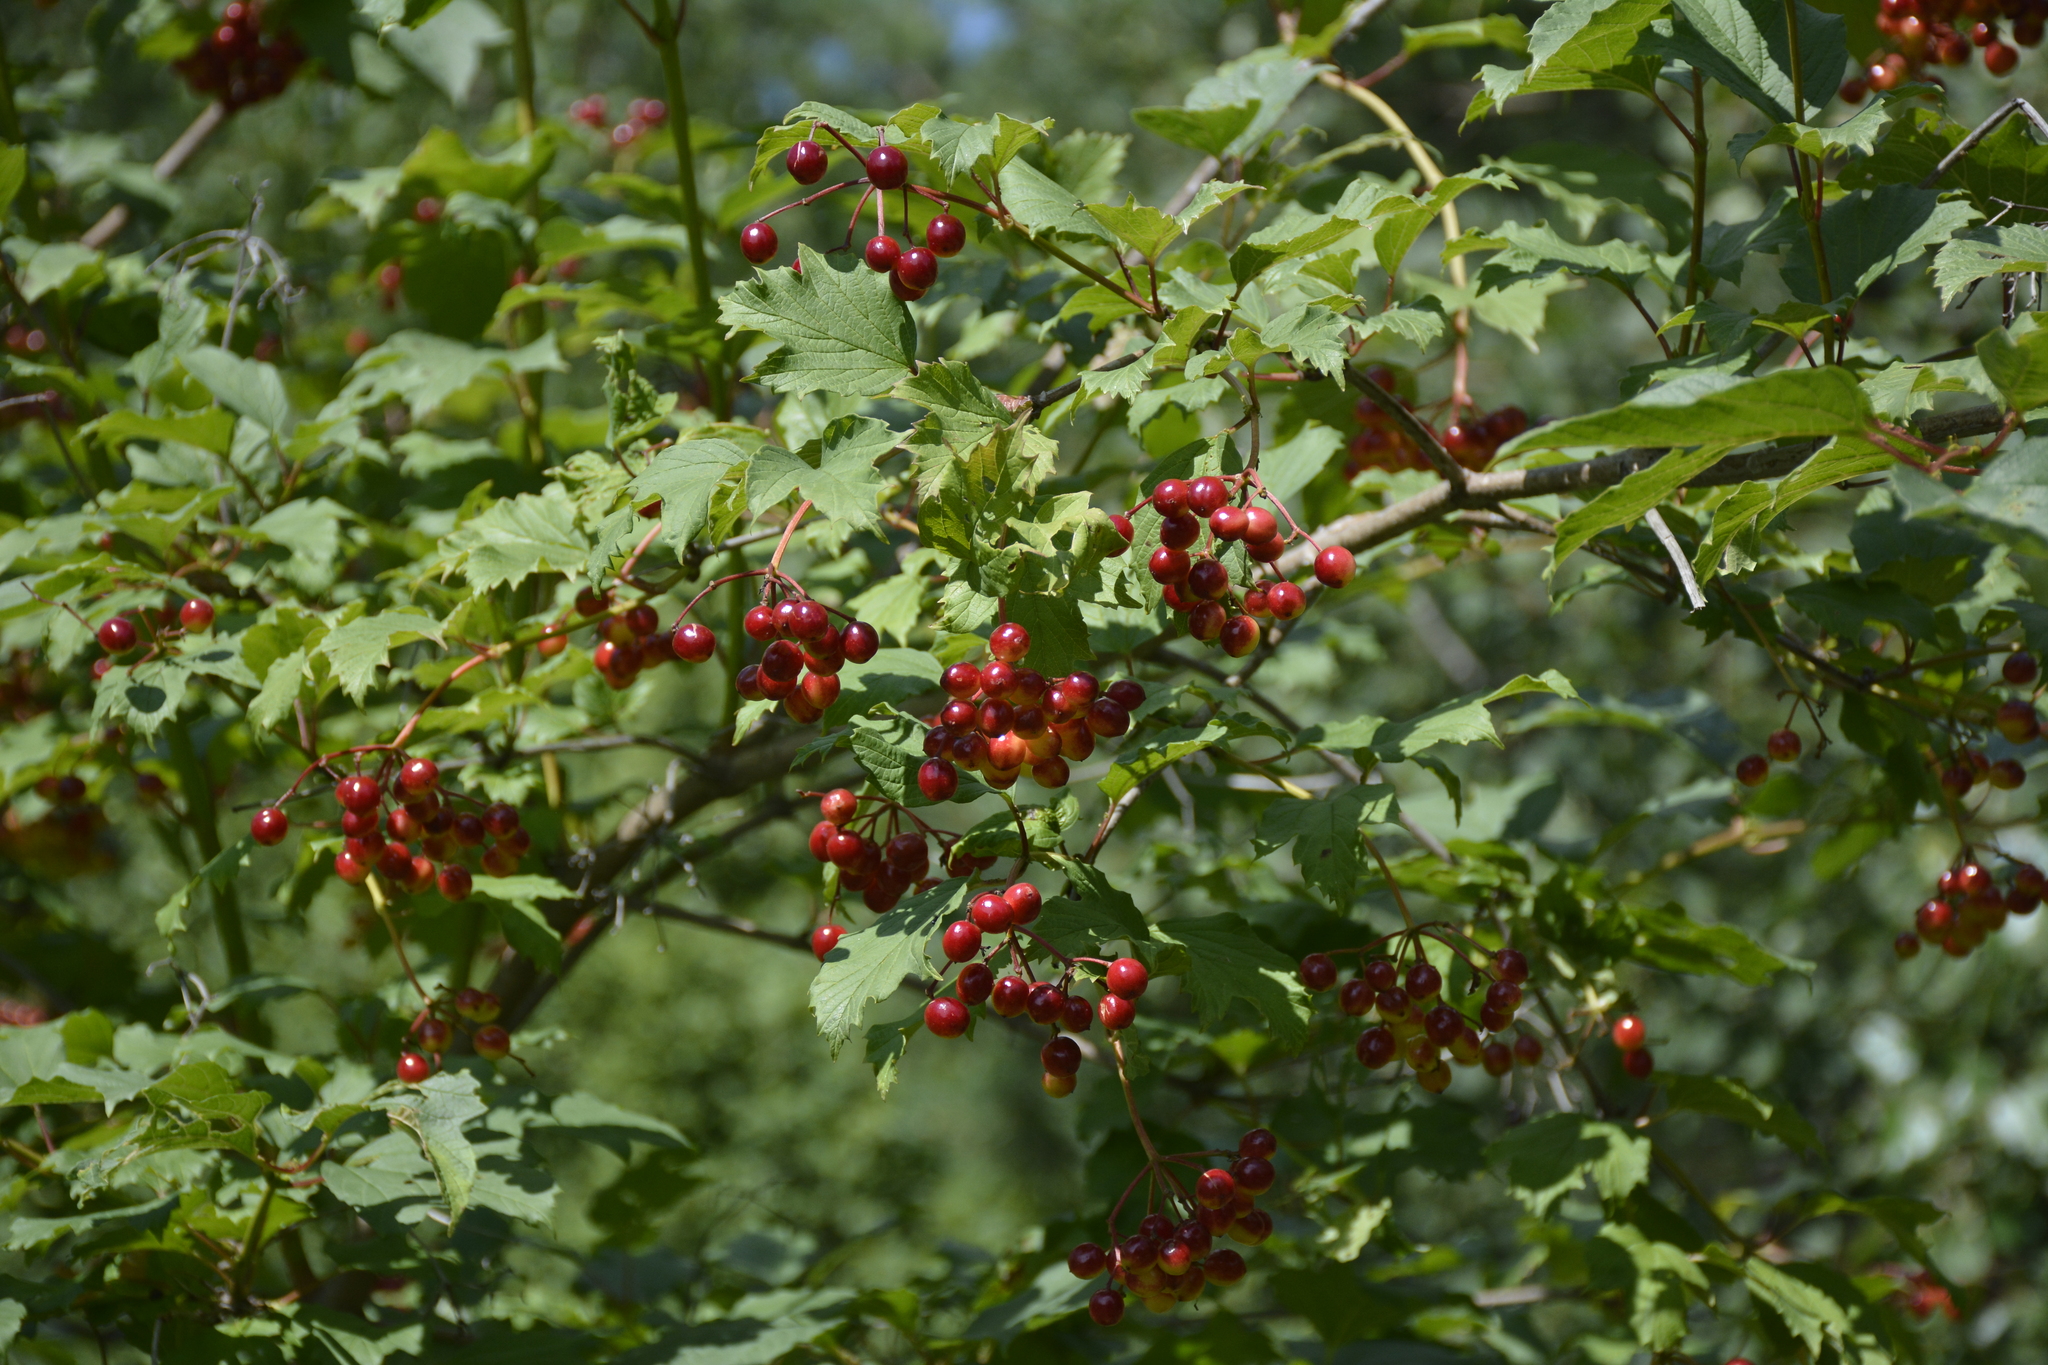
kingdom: Plantae
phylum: Tracheophyta
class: Magnoliopsida
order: Dipsacales
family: Viburnaceae
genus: Viburnum
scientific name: Viburnum opulus
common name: Guelder-rose
